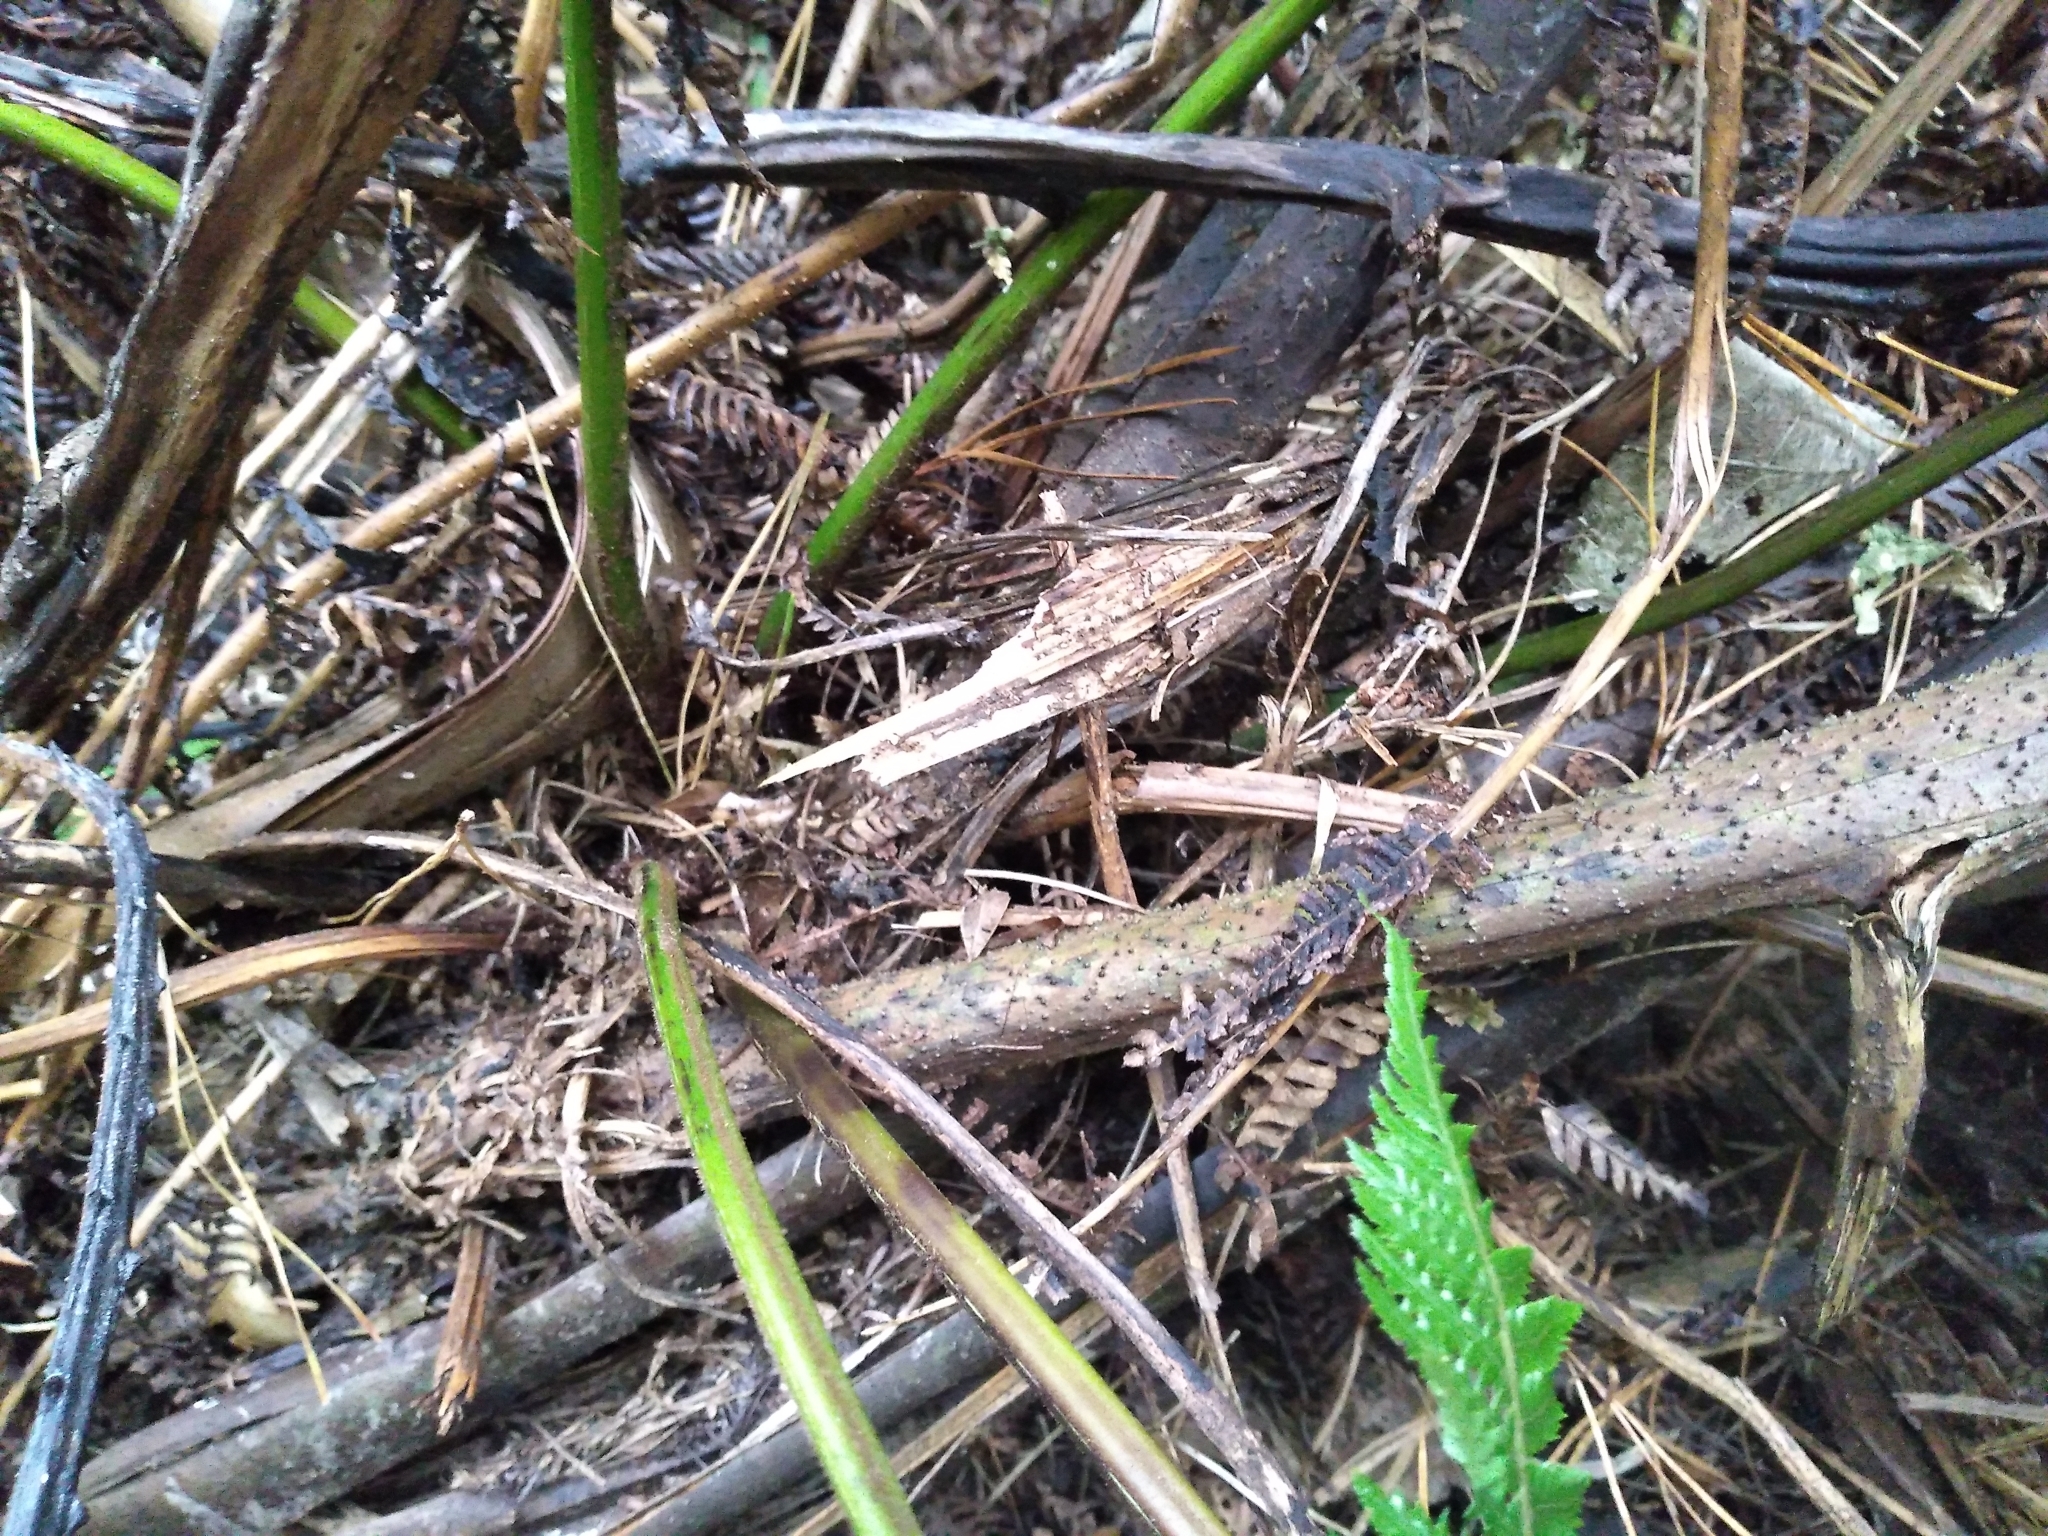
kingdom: Plantae
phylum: Tracheophyta
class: Polypodiopsida
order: Cyatheales
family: Dicksoniaceae
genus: Dicksonia
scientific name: Dicksonia fibrosa
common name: Golden tree fern
